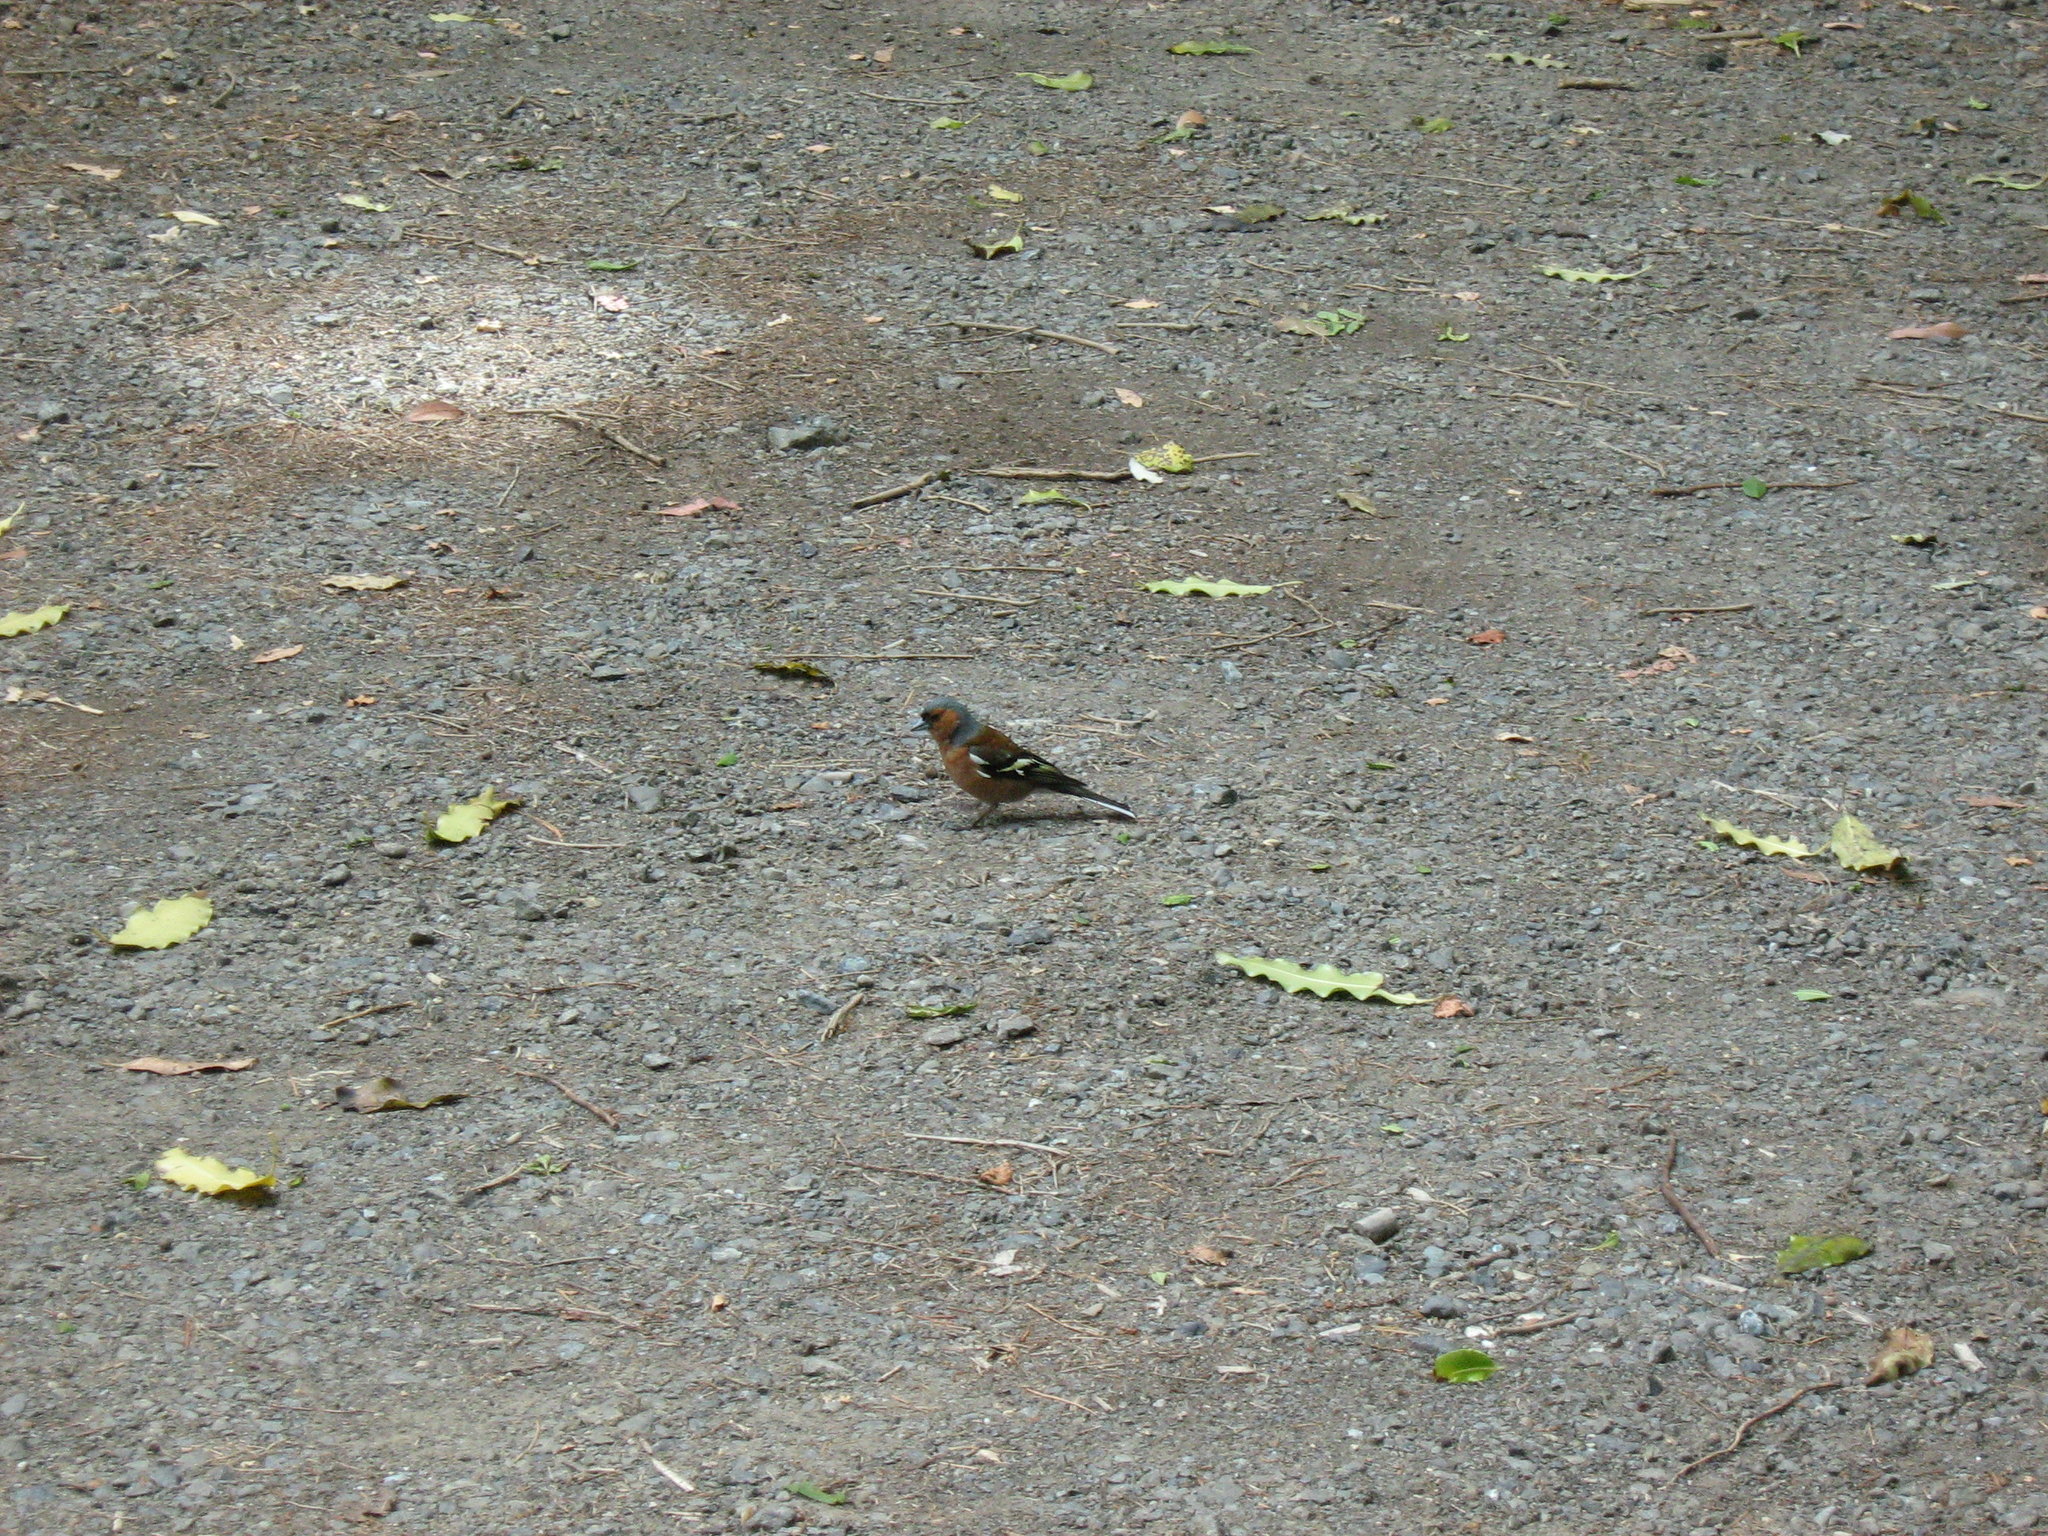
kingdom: Animalia
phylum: Chordata
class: Aves
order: Passeriformes
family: Fringillidae
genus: Fringilla
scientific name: Fringilla coelebs
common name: Common chaffinch
